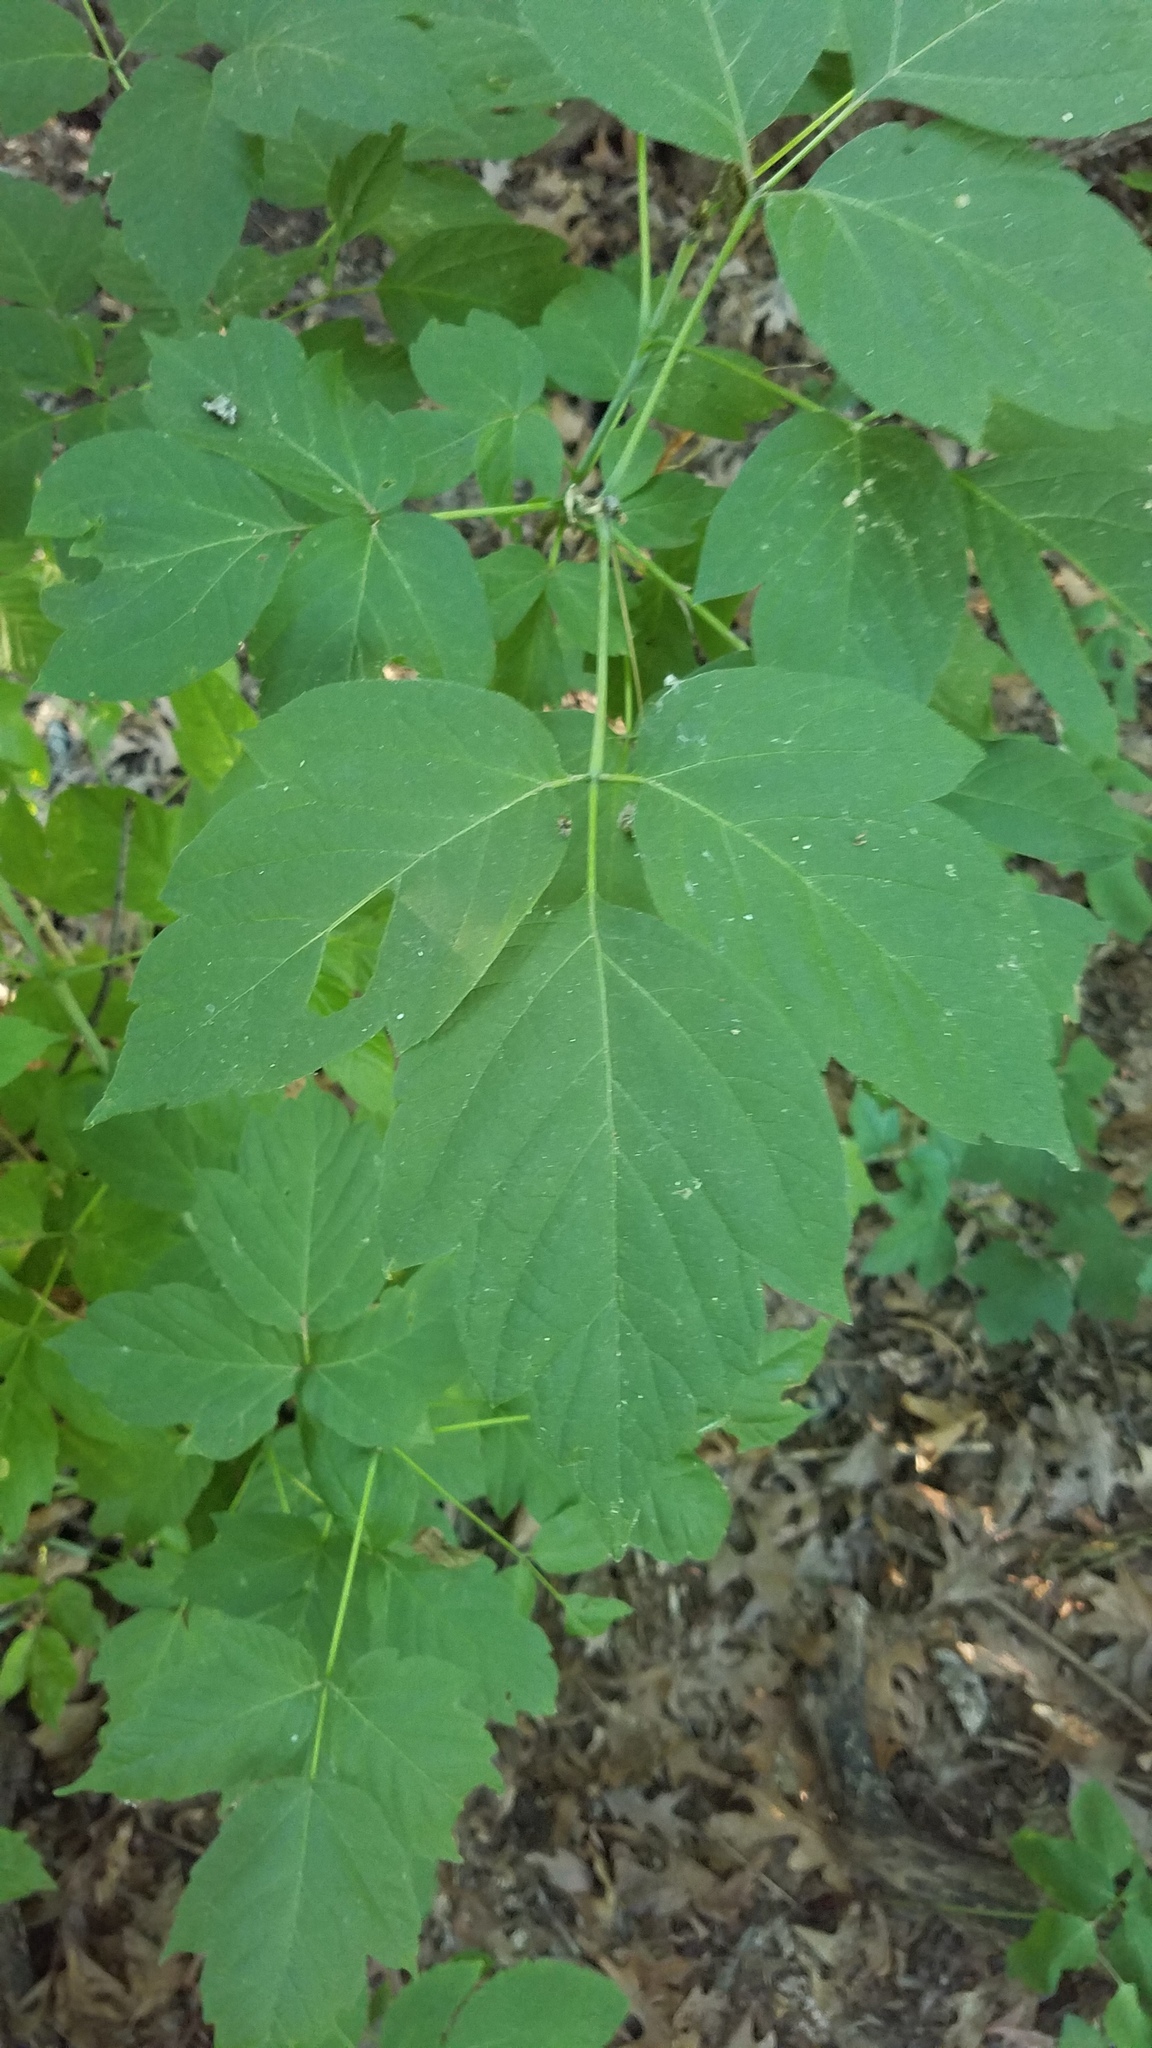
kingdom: Plantae
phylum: Tracheophyta
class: Magnoliopsida
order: Sapindales
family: Sapindaceae
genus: Acer
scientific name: Acer negundo
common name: Ashleaf maple
